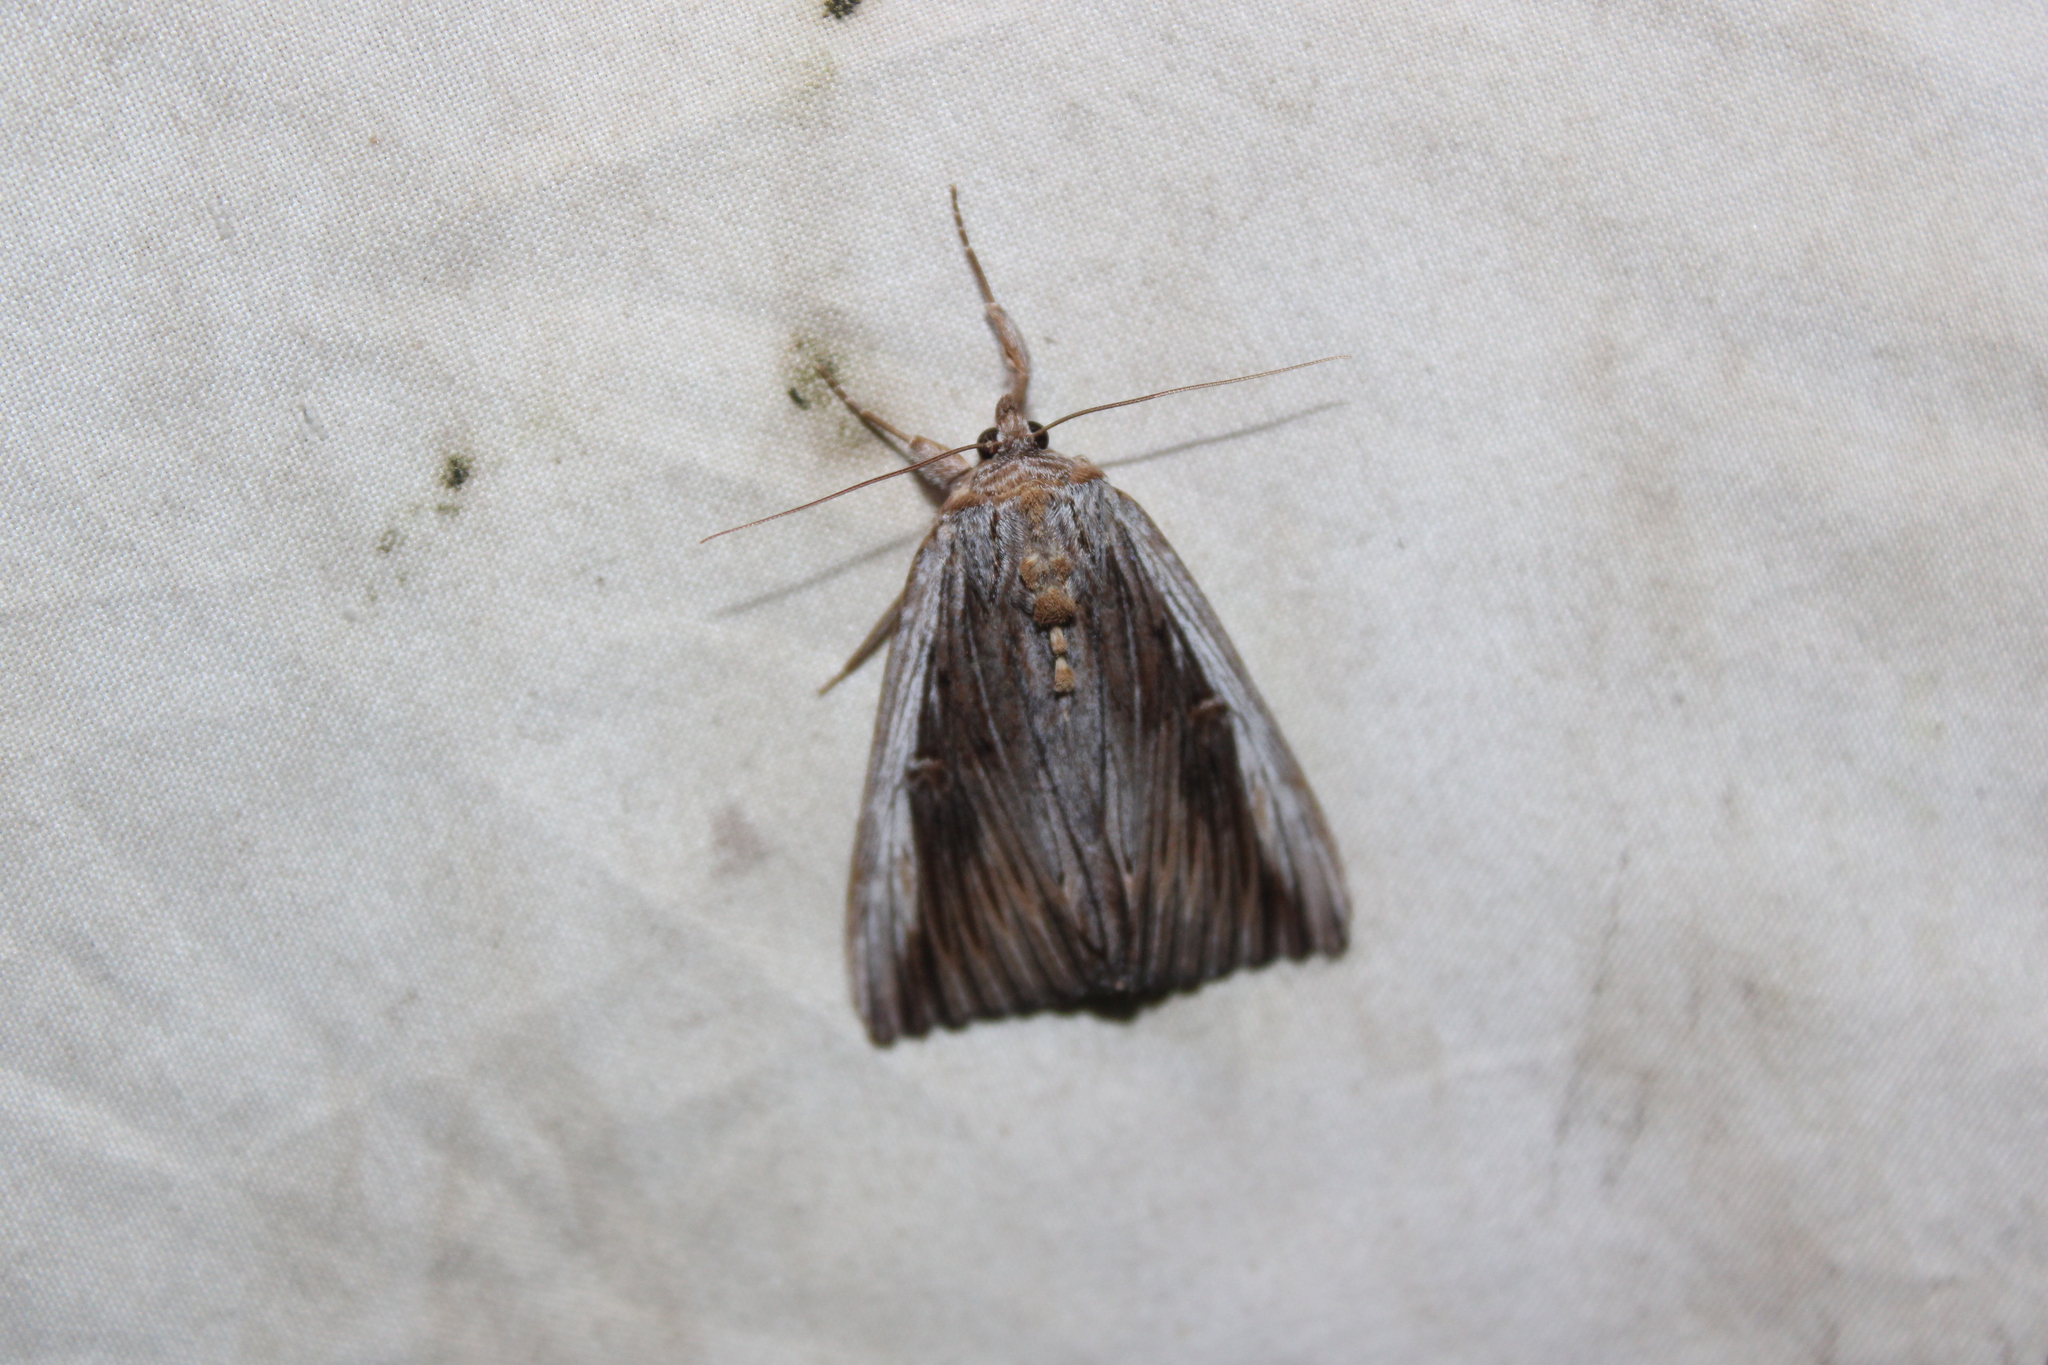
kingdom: Animalia
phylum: Arthropoda
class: Insecta
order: Lepidoptera
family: Erebidae
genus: Catocala
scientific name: Catocala herodias
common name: Pine barrens underwing
